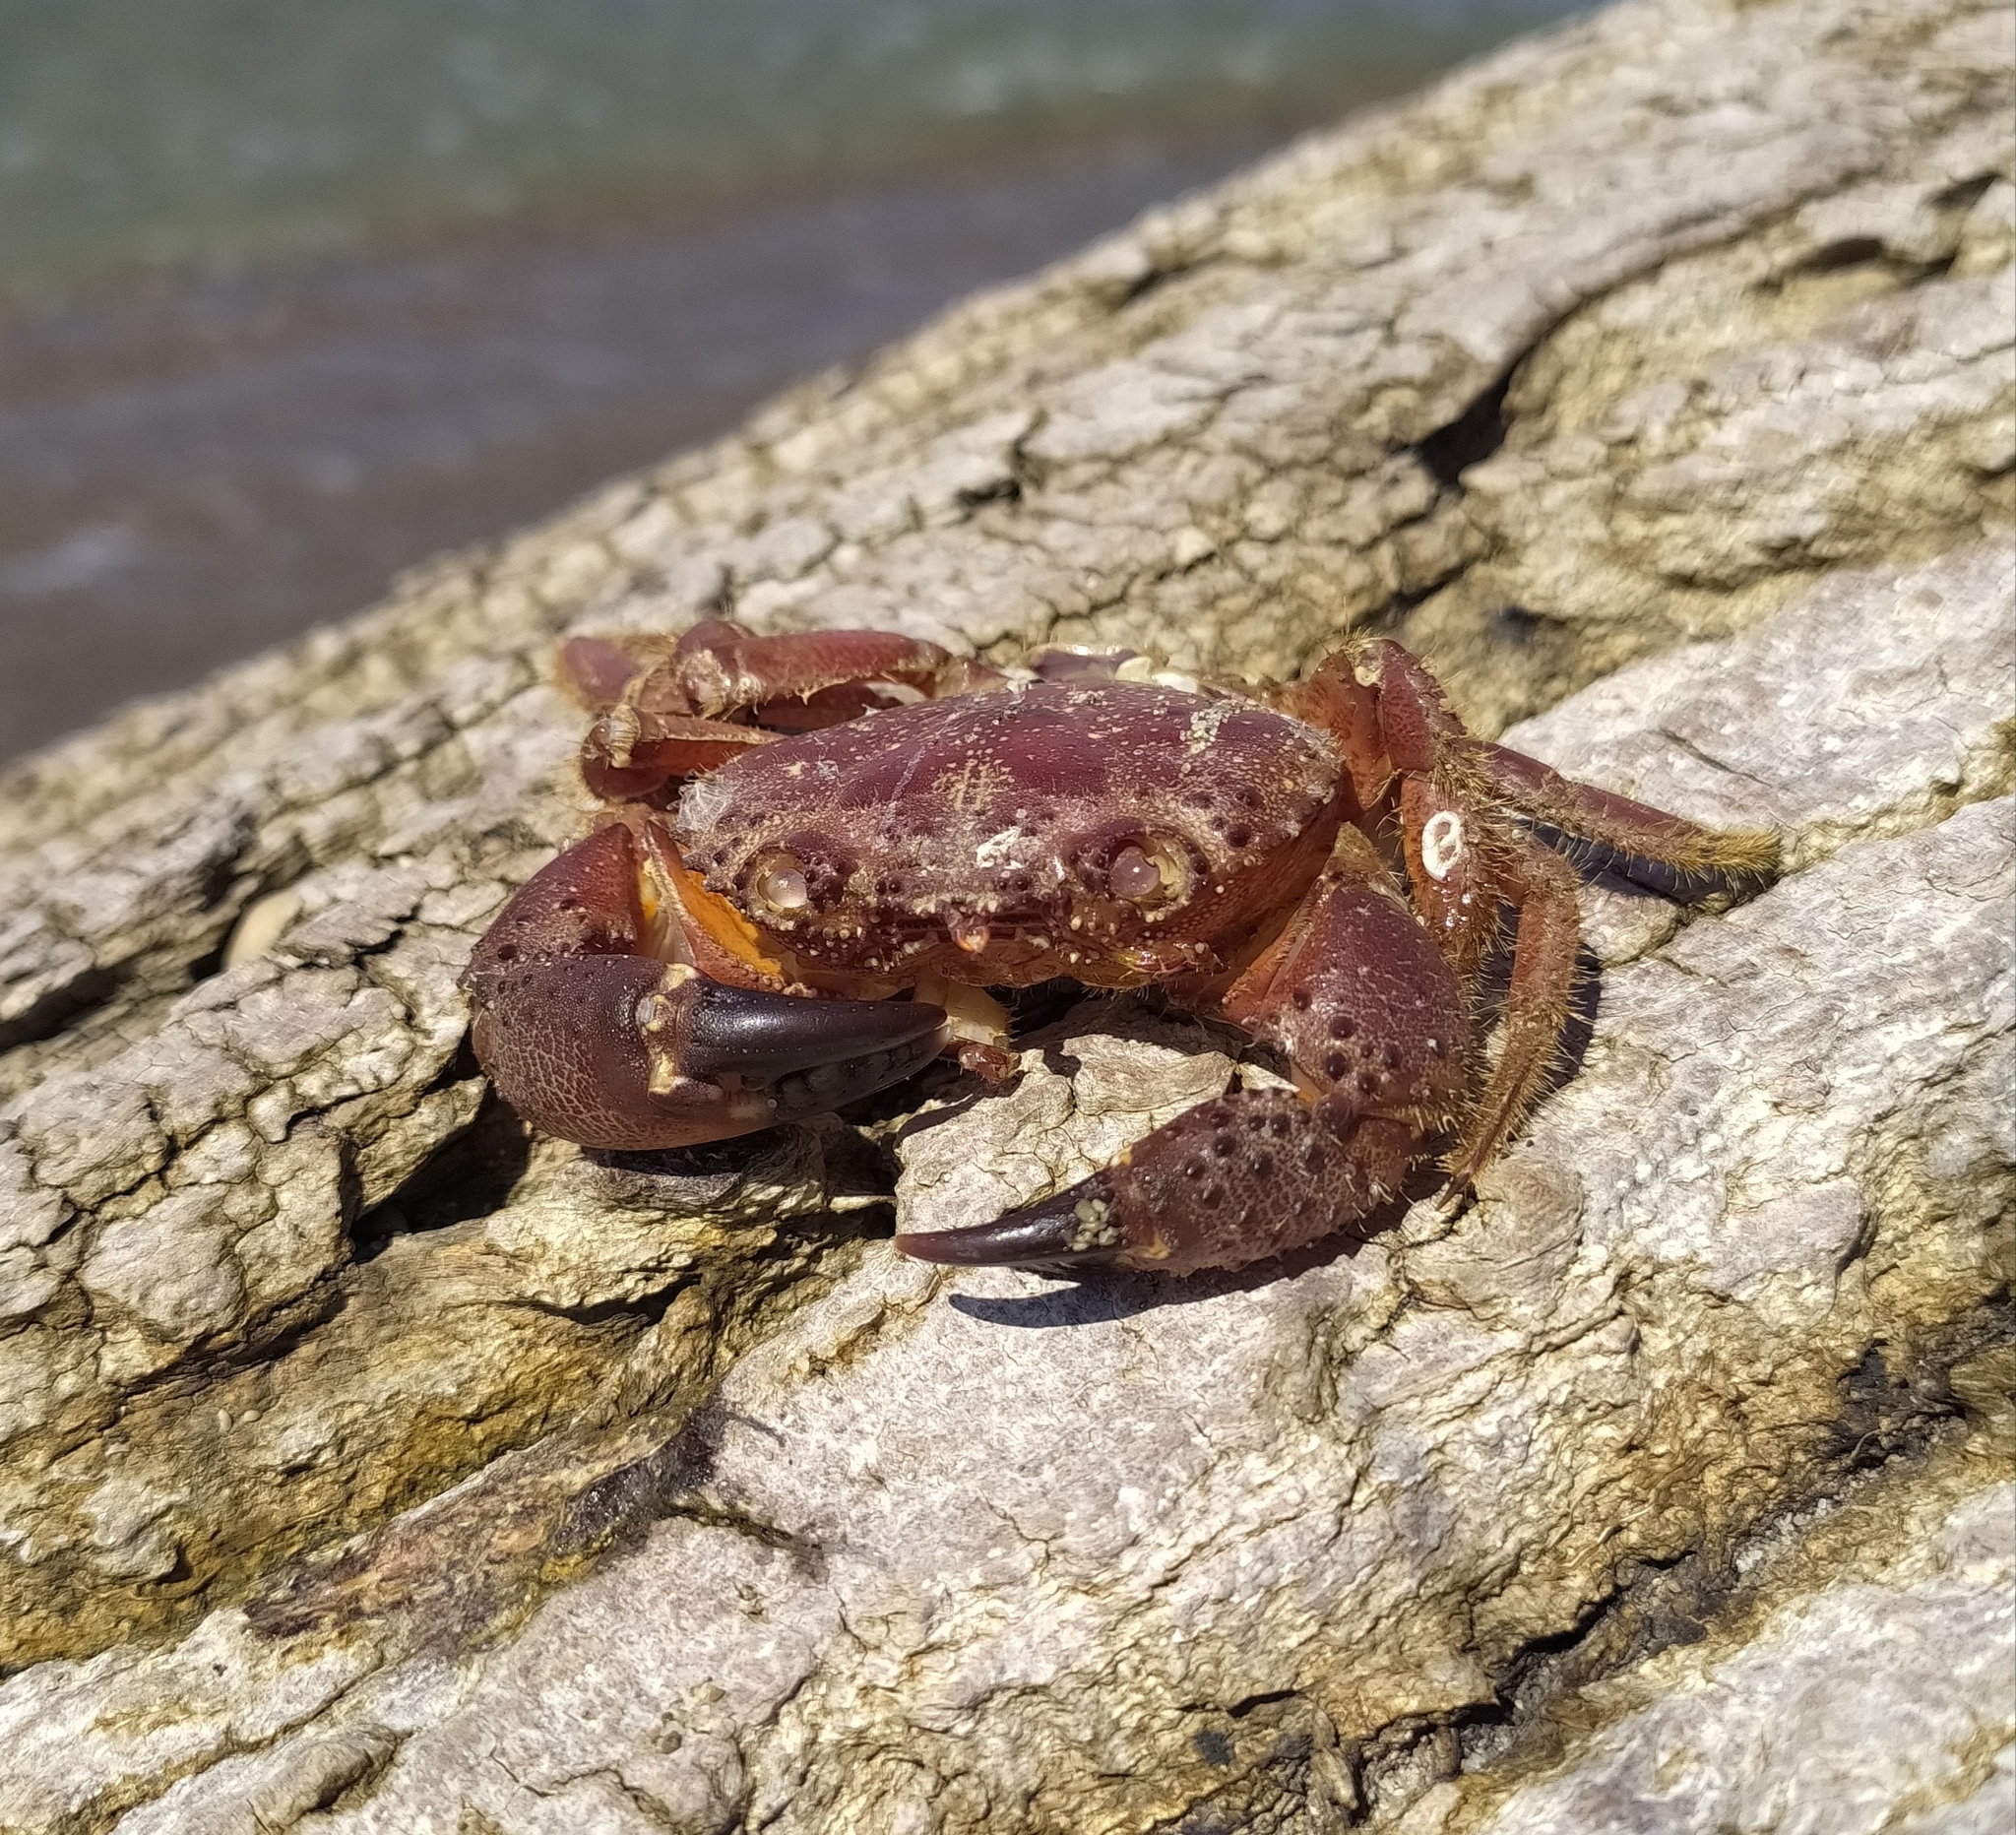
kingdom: Animalia
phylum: Arthropoda
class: Malacostraca
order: Decapoda
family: Eriphiidae
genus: Eriphia
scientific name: Eriphia verrucosa
